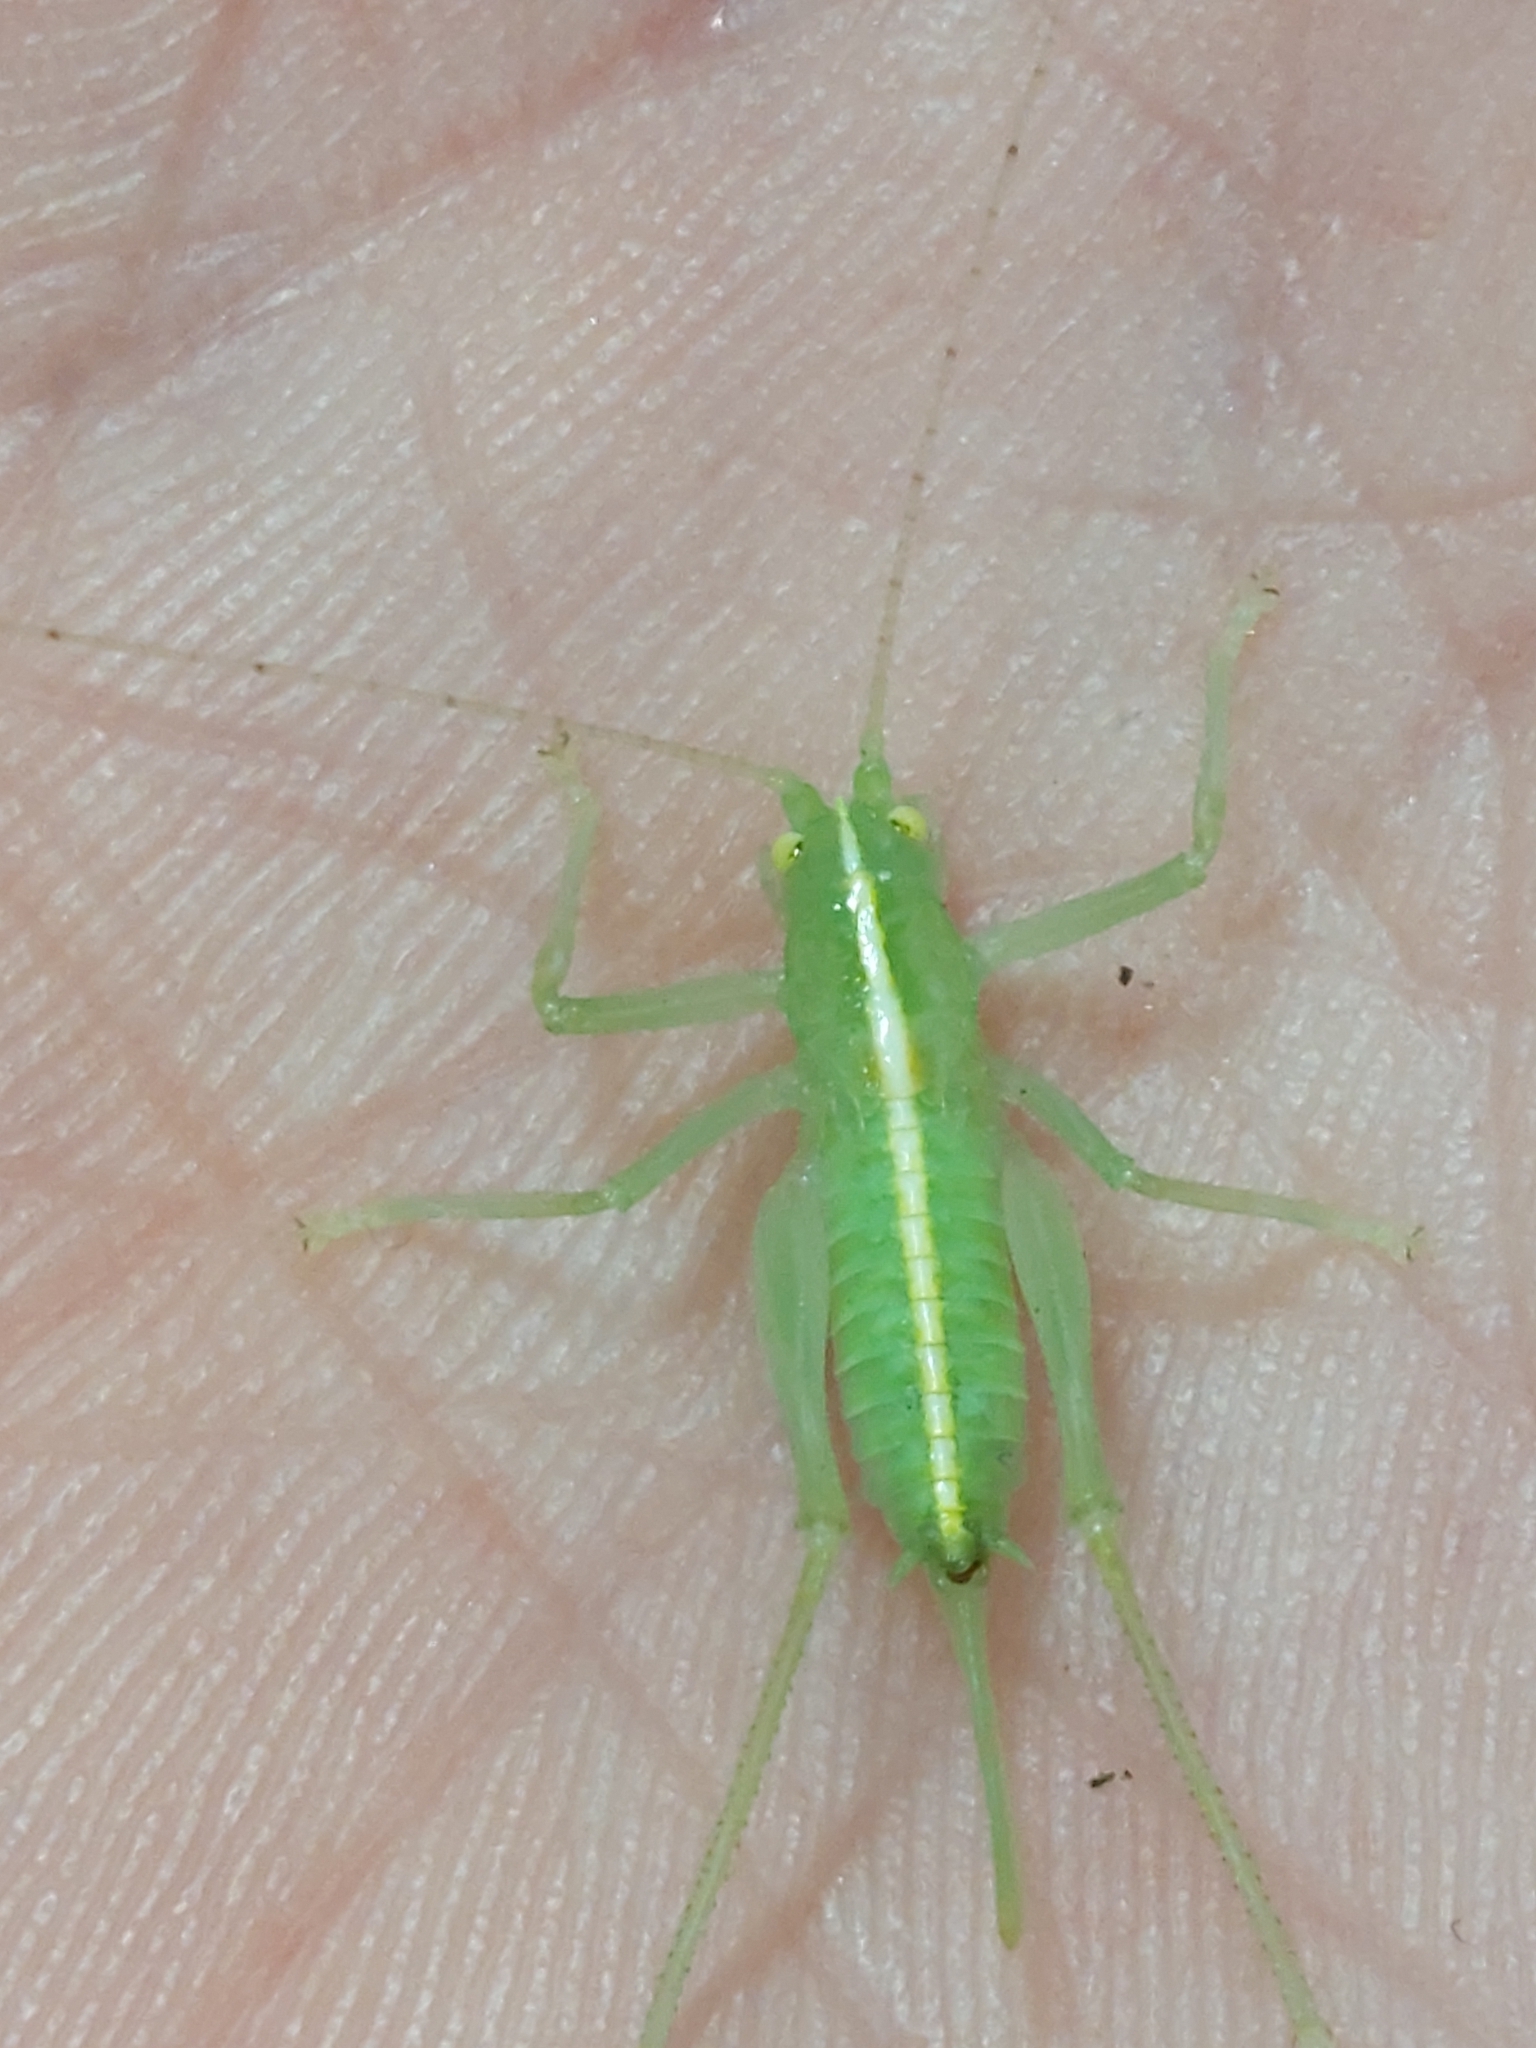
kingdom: Animalia
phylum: Arthropoda
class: Insecta
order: Orthoptera
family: Tettigoniidae
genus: Meconema
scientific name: Meconema meridionale
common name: Southern oak bush-cricket
